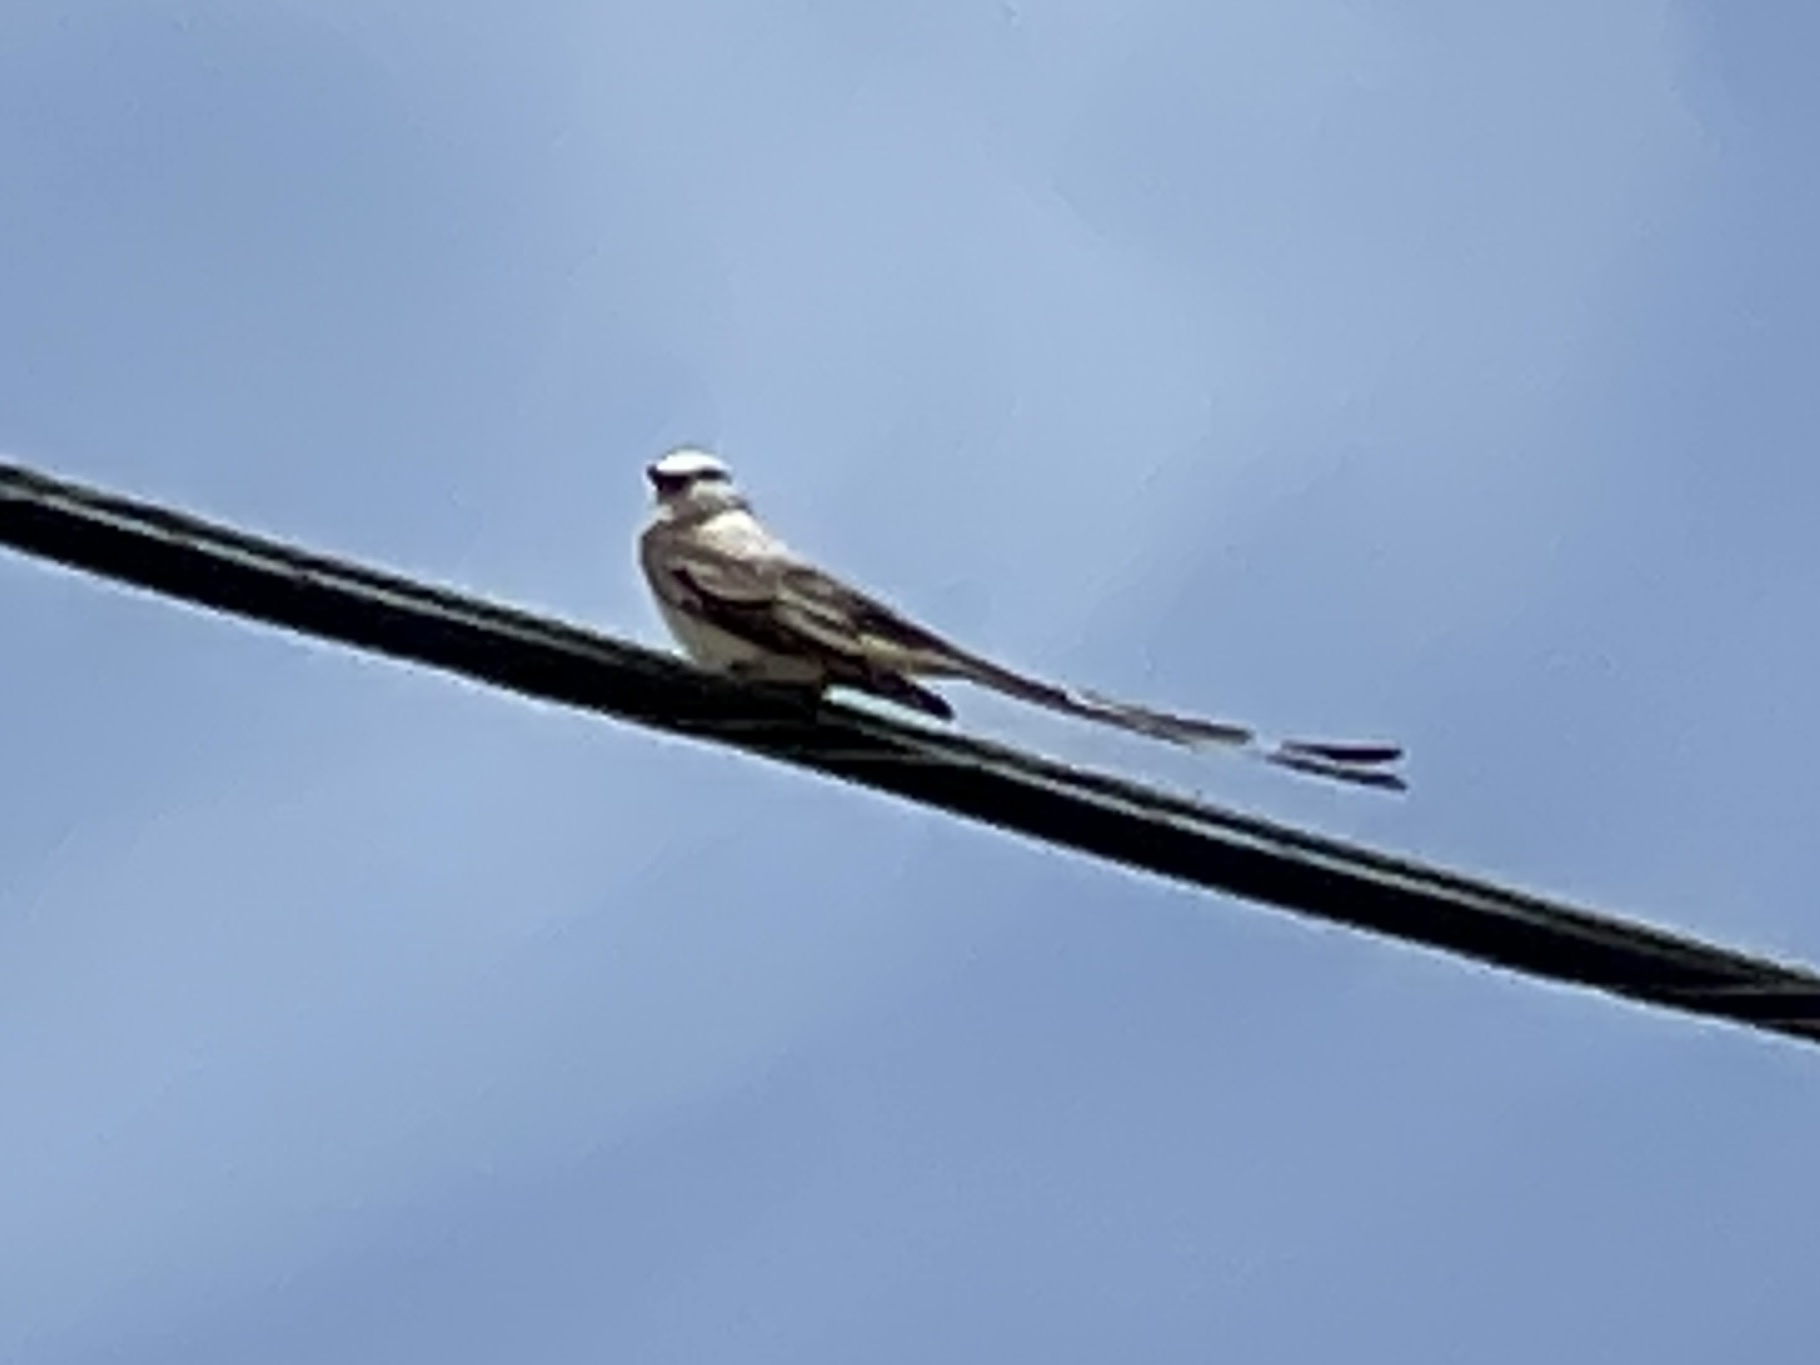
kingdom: Animalia
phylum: Chordata
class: Aves
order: Passeriformes
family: Tyrannidae
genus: Tyrannus
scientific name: Tyrannus forficatus
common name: Scissor-tailed flycatcher
